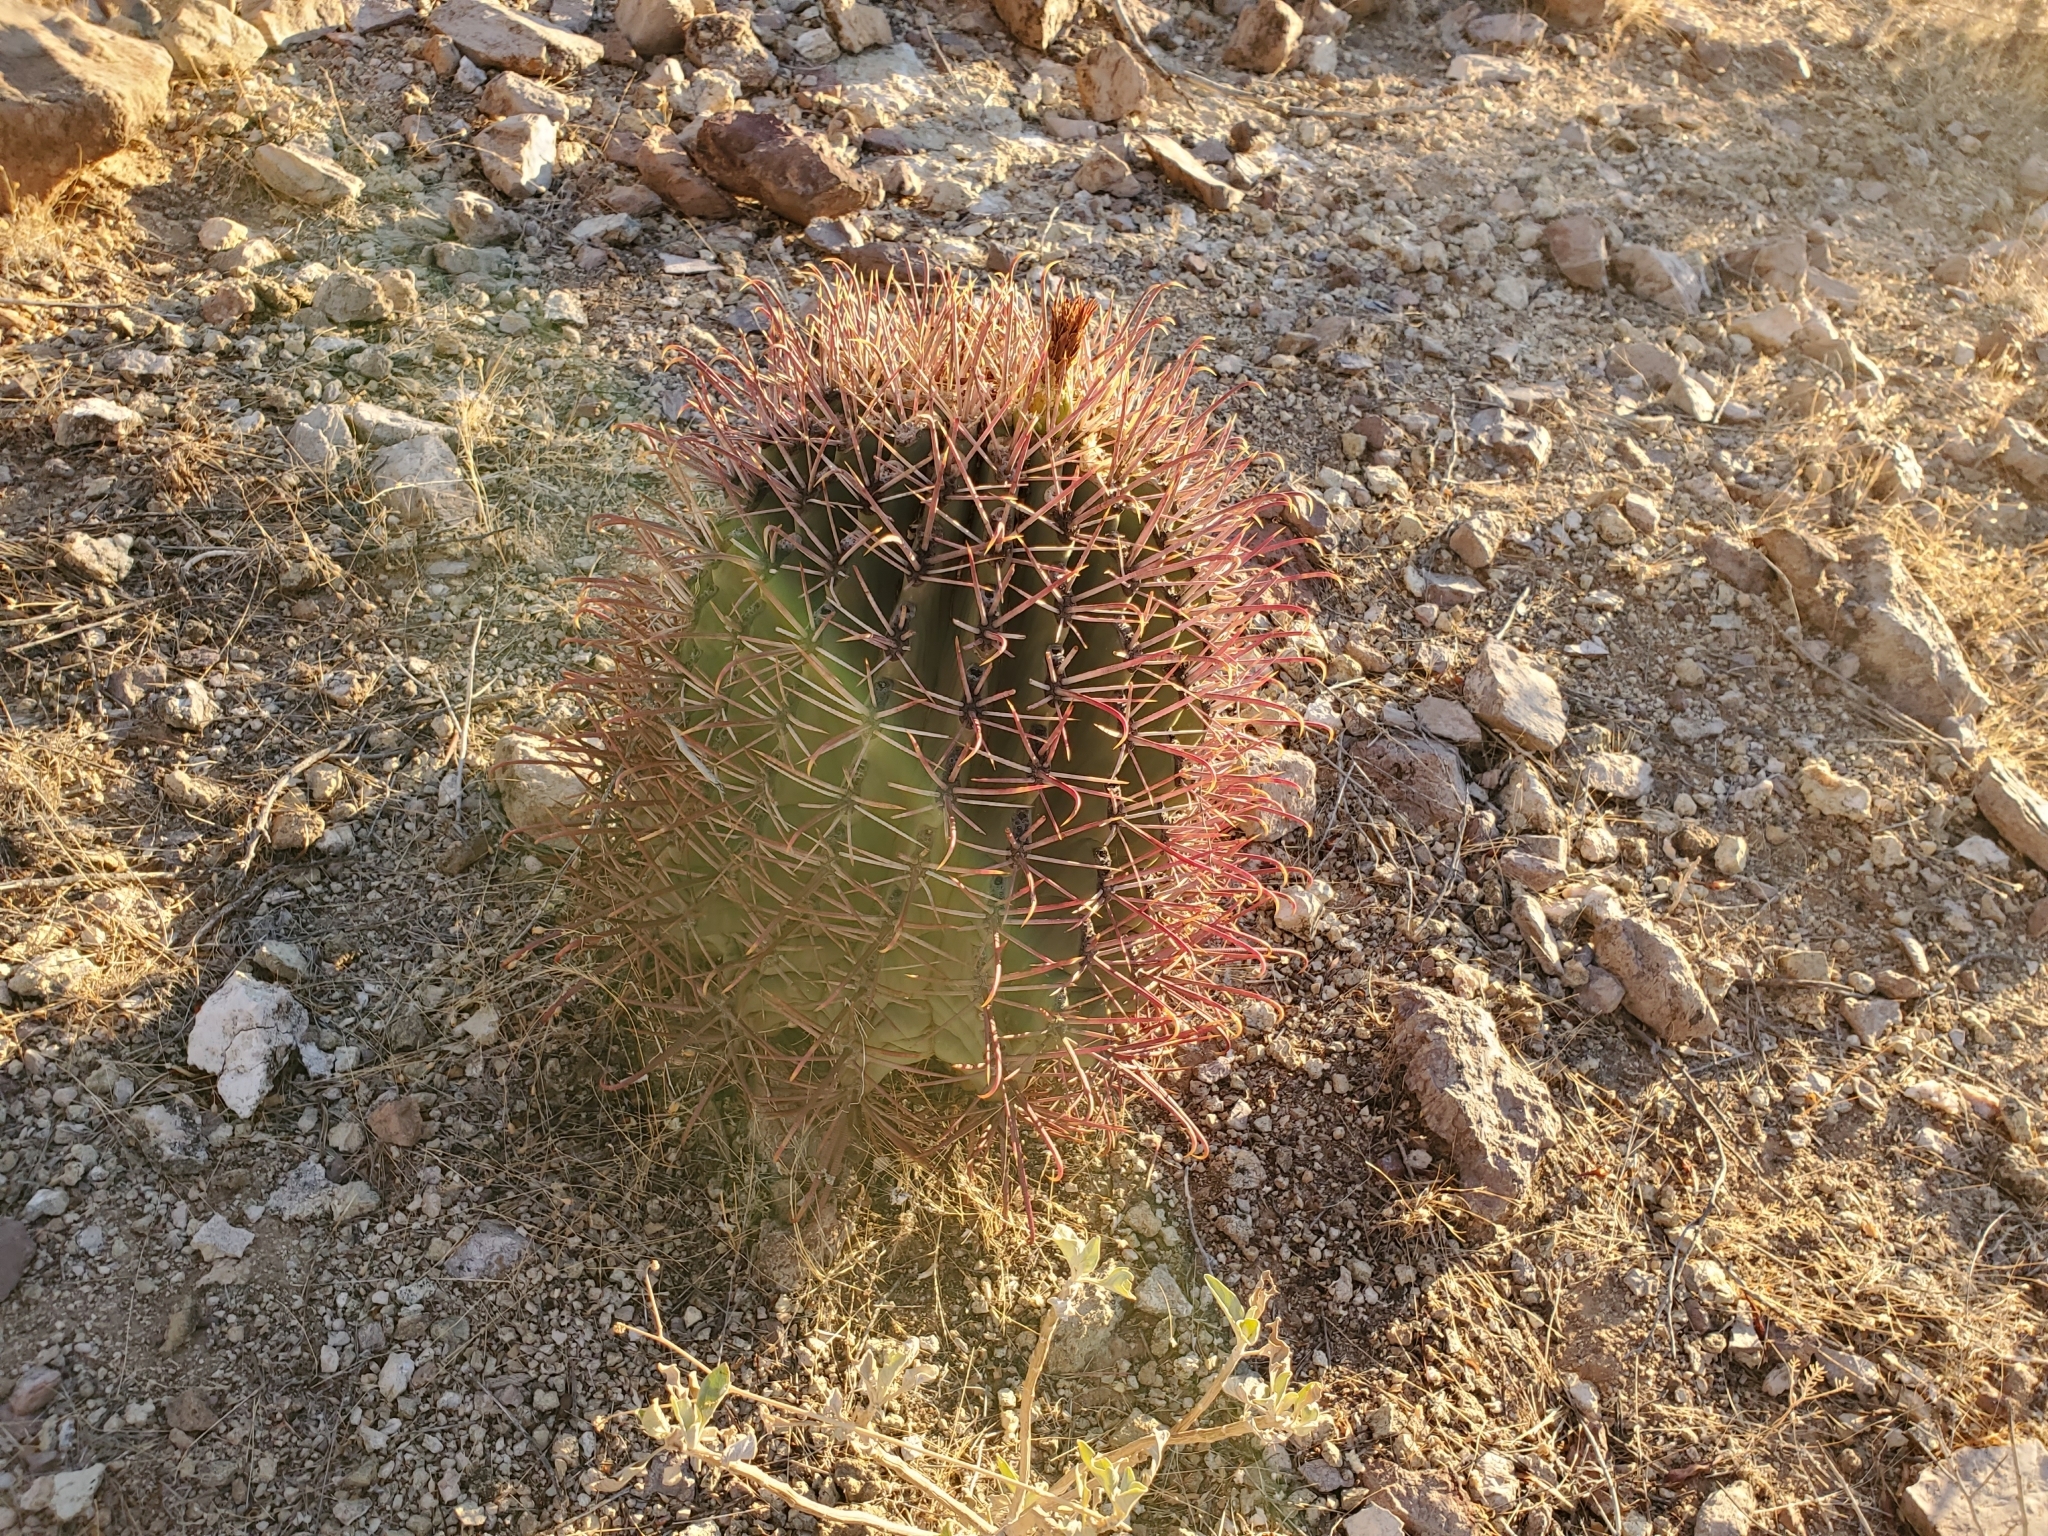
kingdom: Plantae
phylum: Tracheophyta
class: Magnoliopsida
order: Caryophyllales
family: Cactaceae
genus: Ferocactus
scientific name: Ferocactus cylindraceus
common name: California barrel cactus
